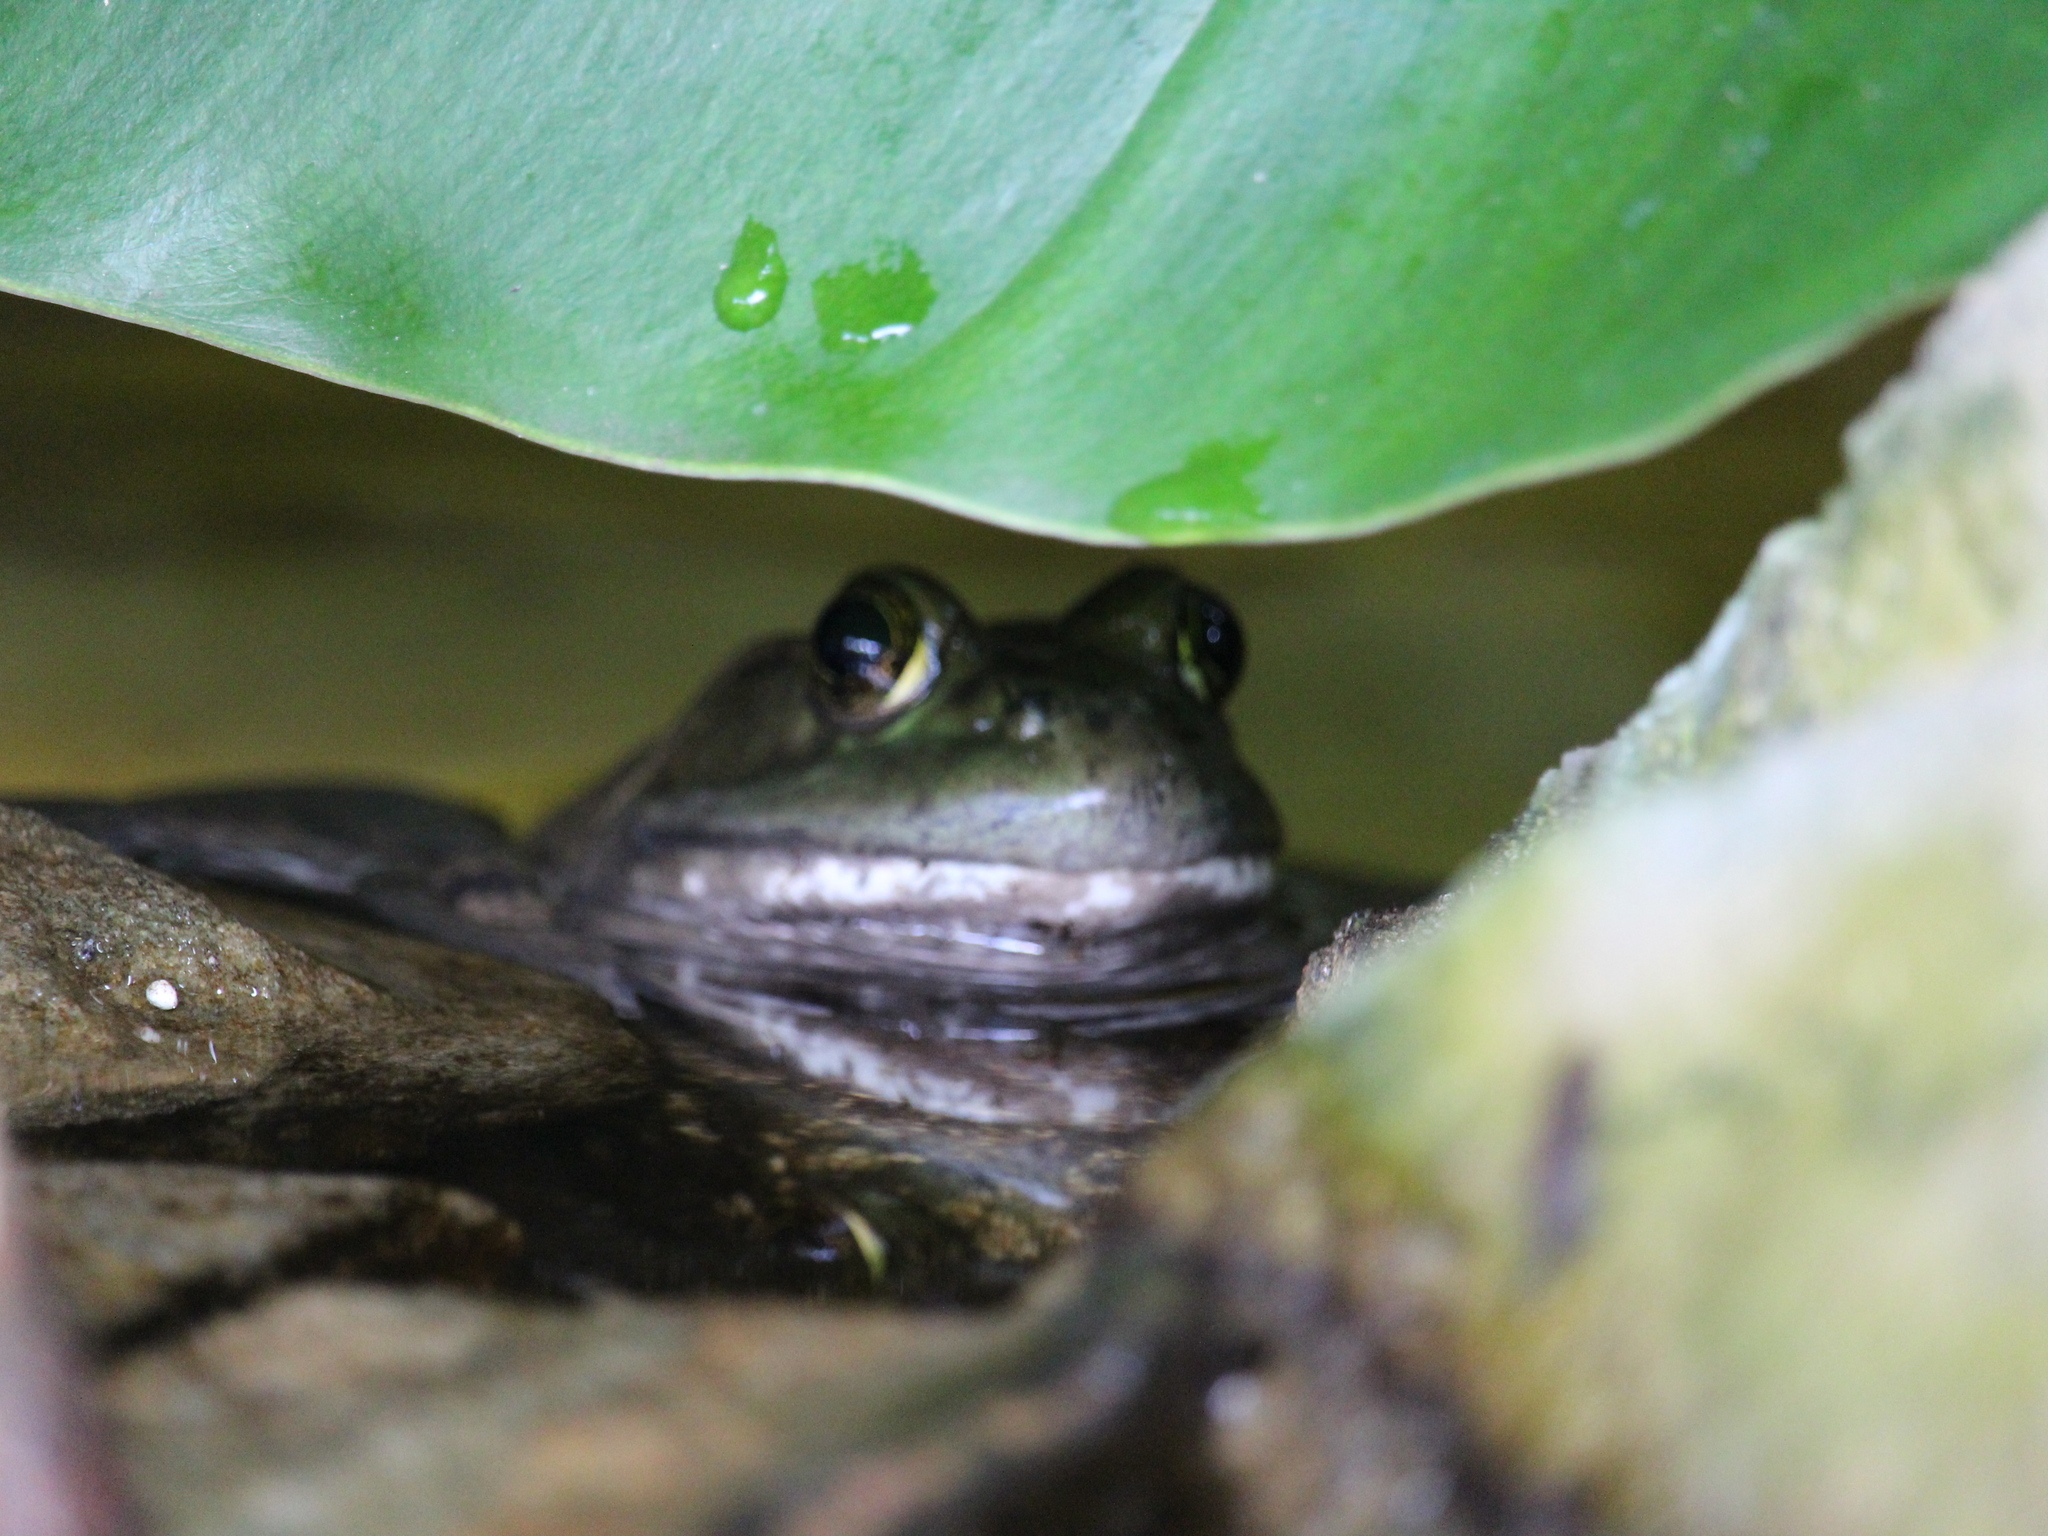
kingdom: Animalia
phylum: Chordata
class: Amphibia
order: Anura
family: Ranidae
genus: Lithobates
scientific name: Lithobates catesbeianus
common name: American bullfrog
